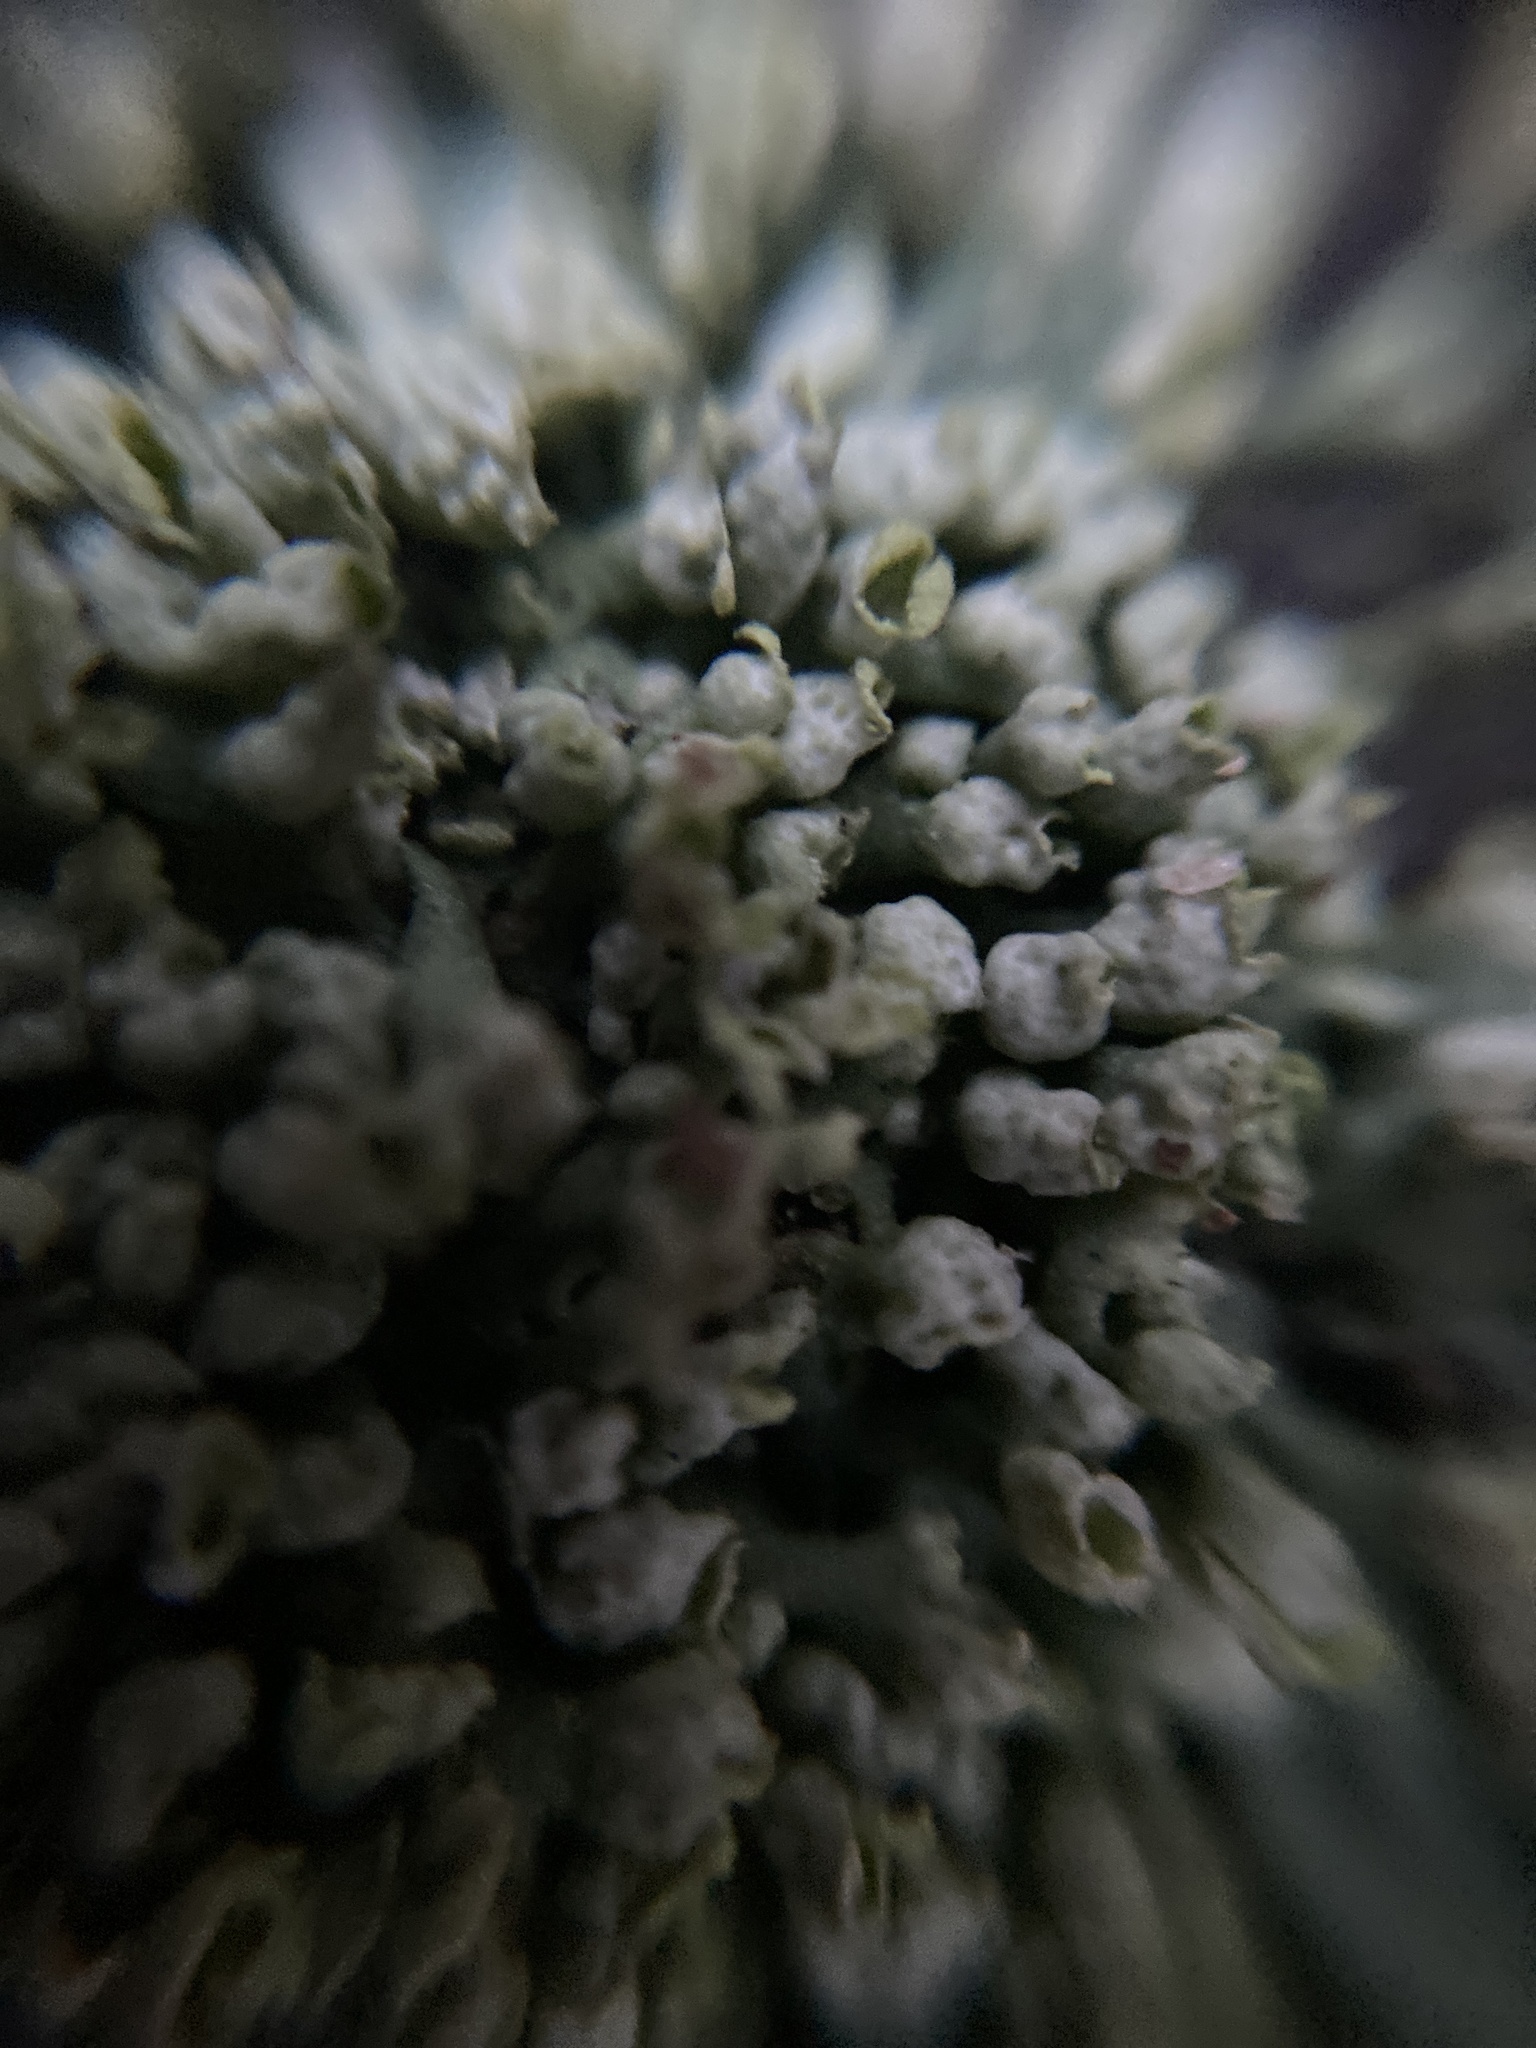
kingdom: Fungi
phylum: Ascomycota
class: Lecanoromycetes
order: Caliciales
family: Physciaceae
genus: Physcia
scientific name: Physcia adscendens
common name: Hooded rosette lichen
